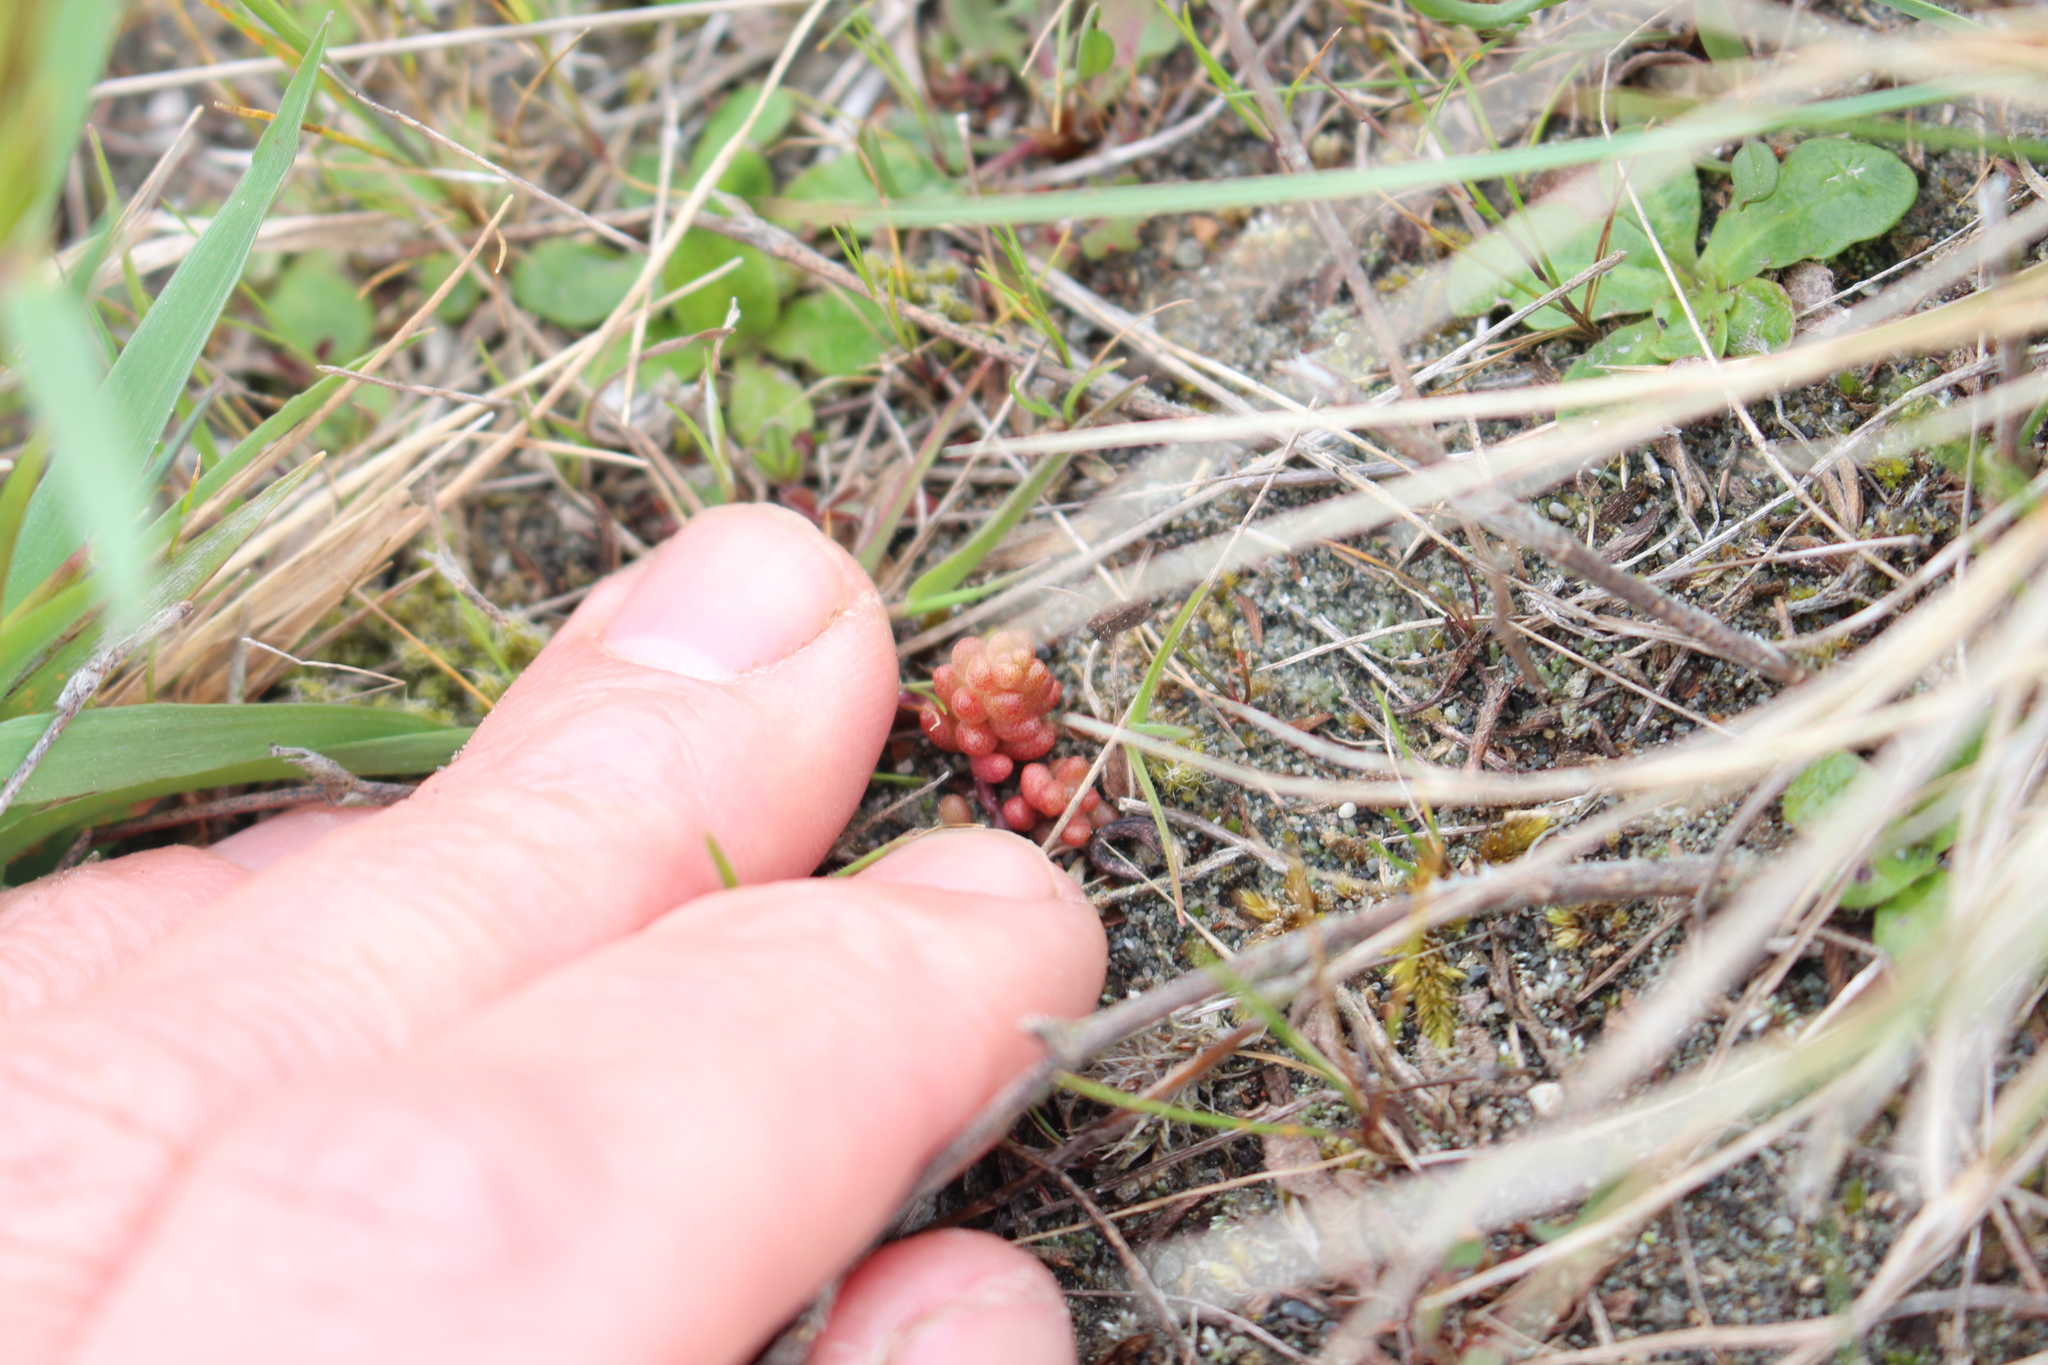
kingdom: Plantae
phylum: Tracheophyta
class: Magnoliopsida
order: Saxifragales
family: Crassulaceae
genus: Sedum
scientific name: Sedum album
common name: White stonecrop
